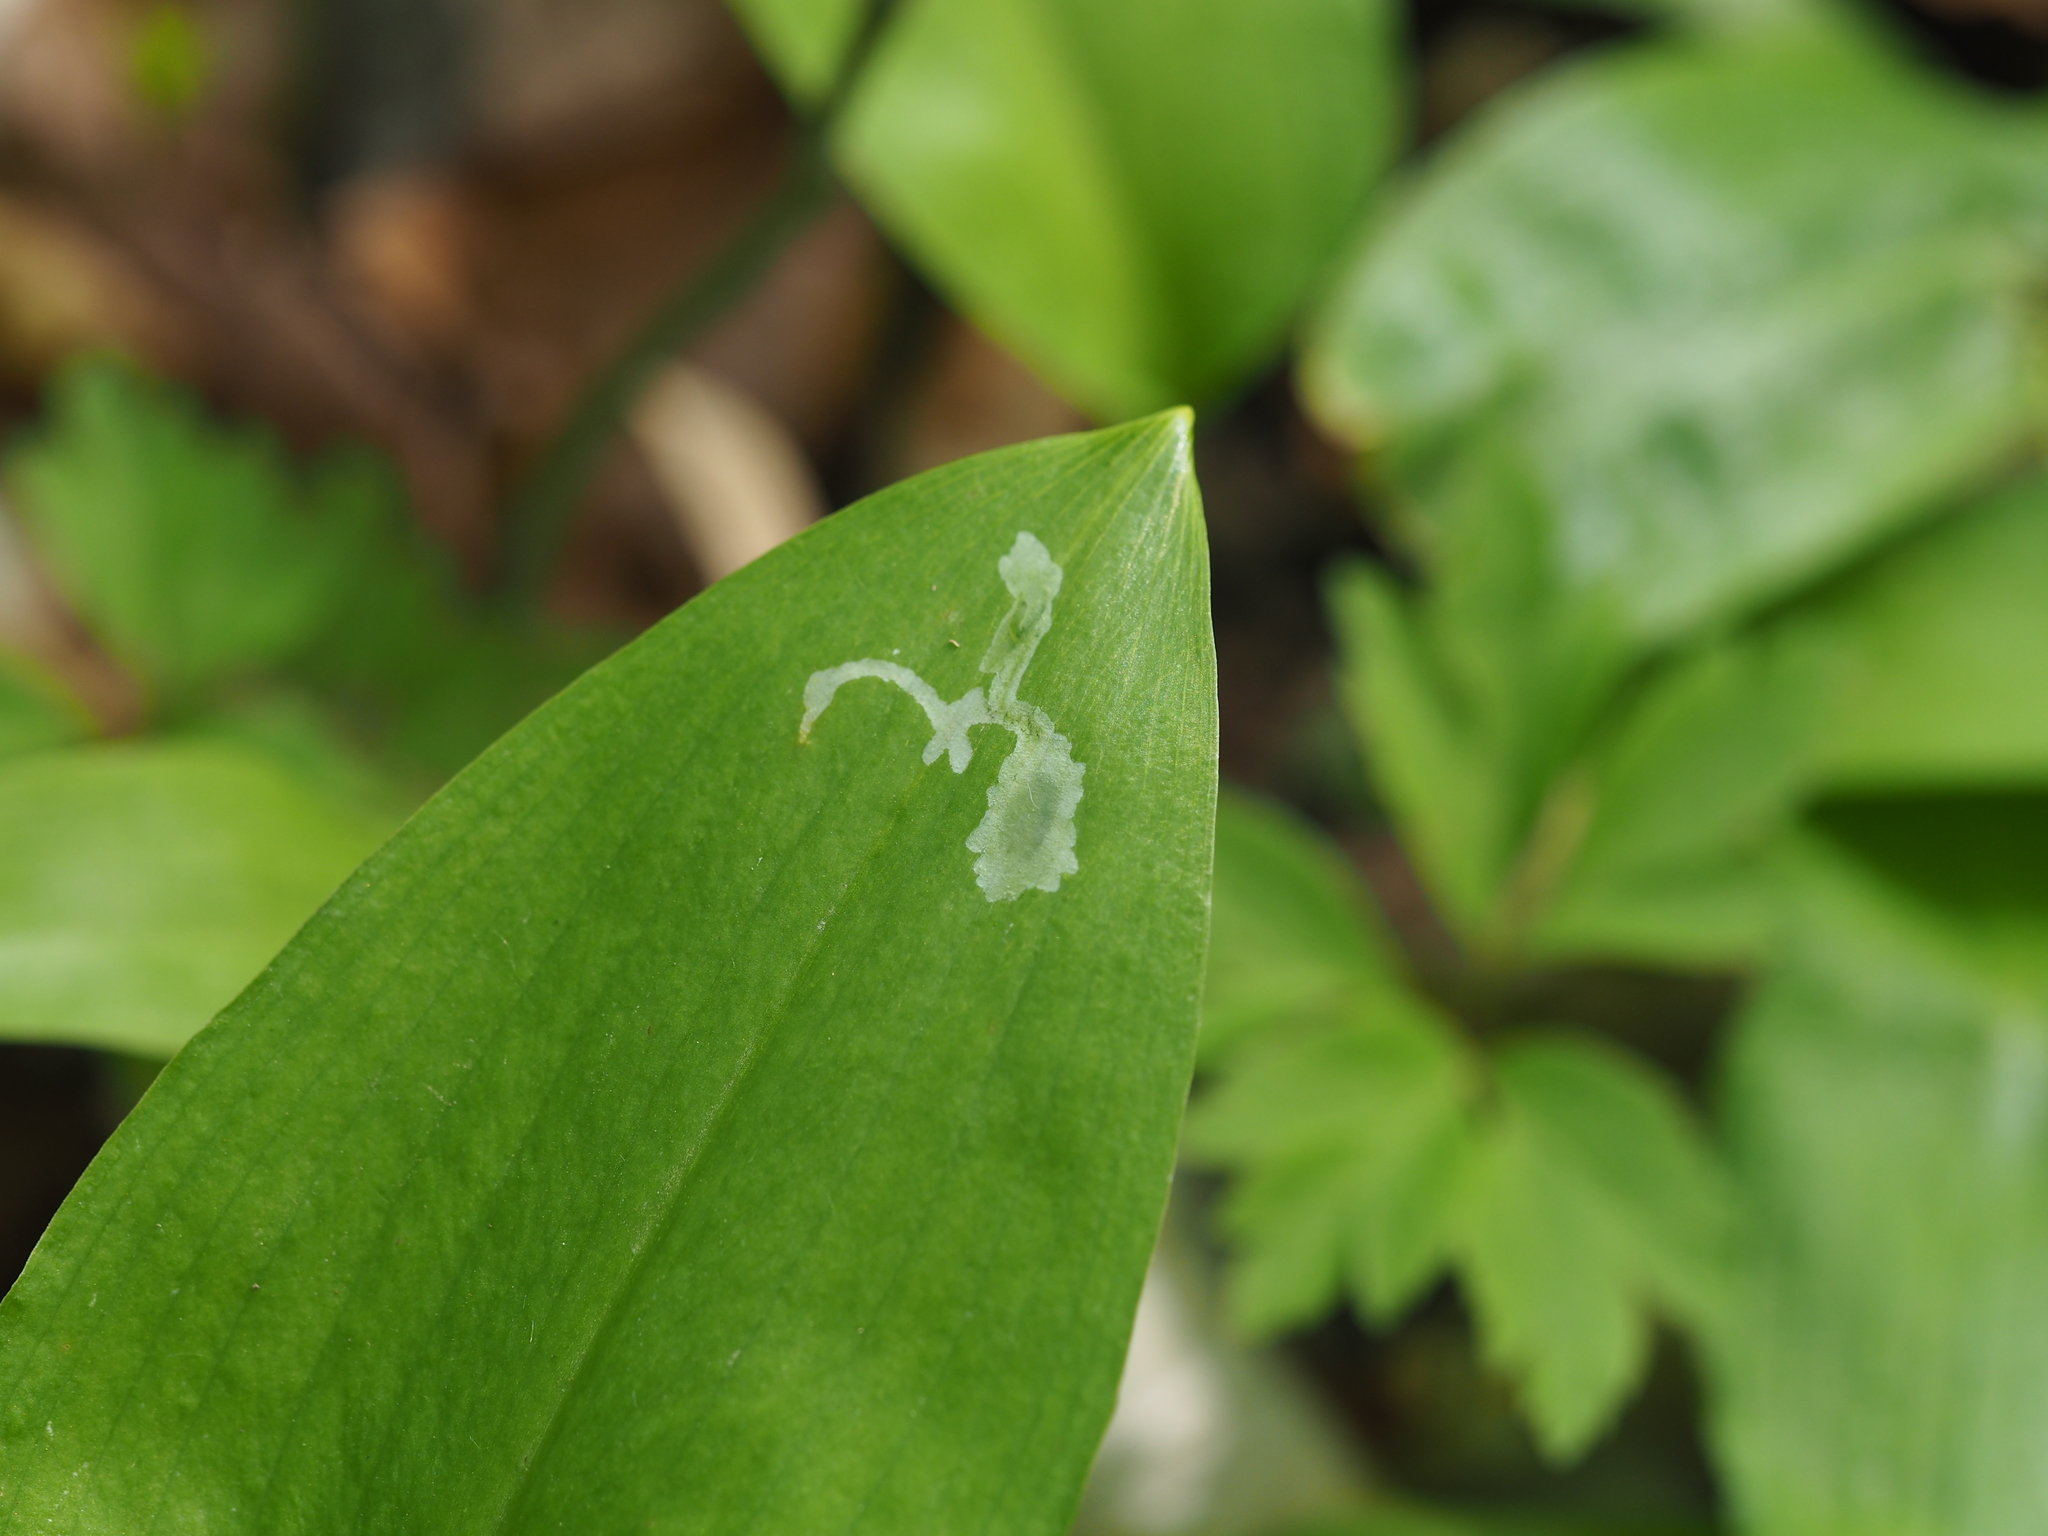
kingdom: Animalia
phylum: Arthropoda
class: Insecta
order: Diptera
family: Syrphidae
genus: Cheilosia
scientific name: Cheilosia fasciata
